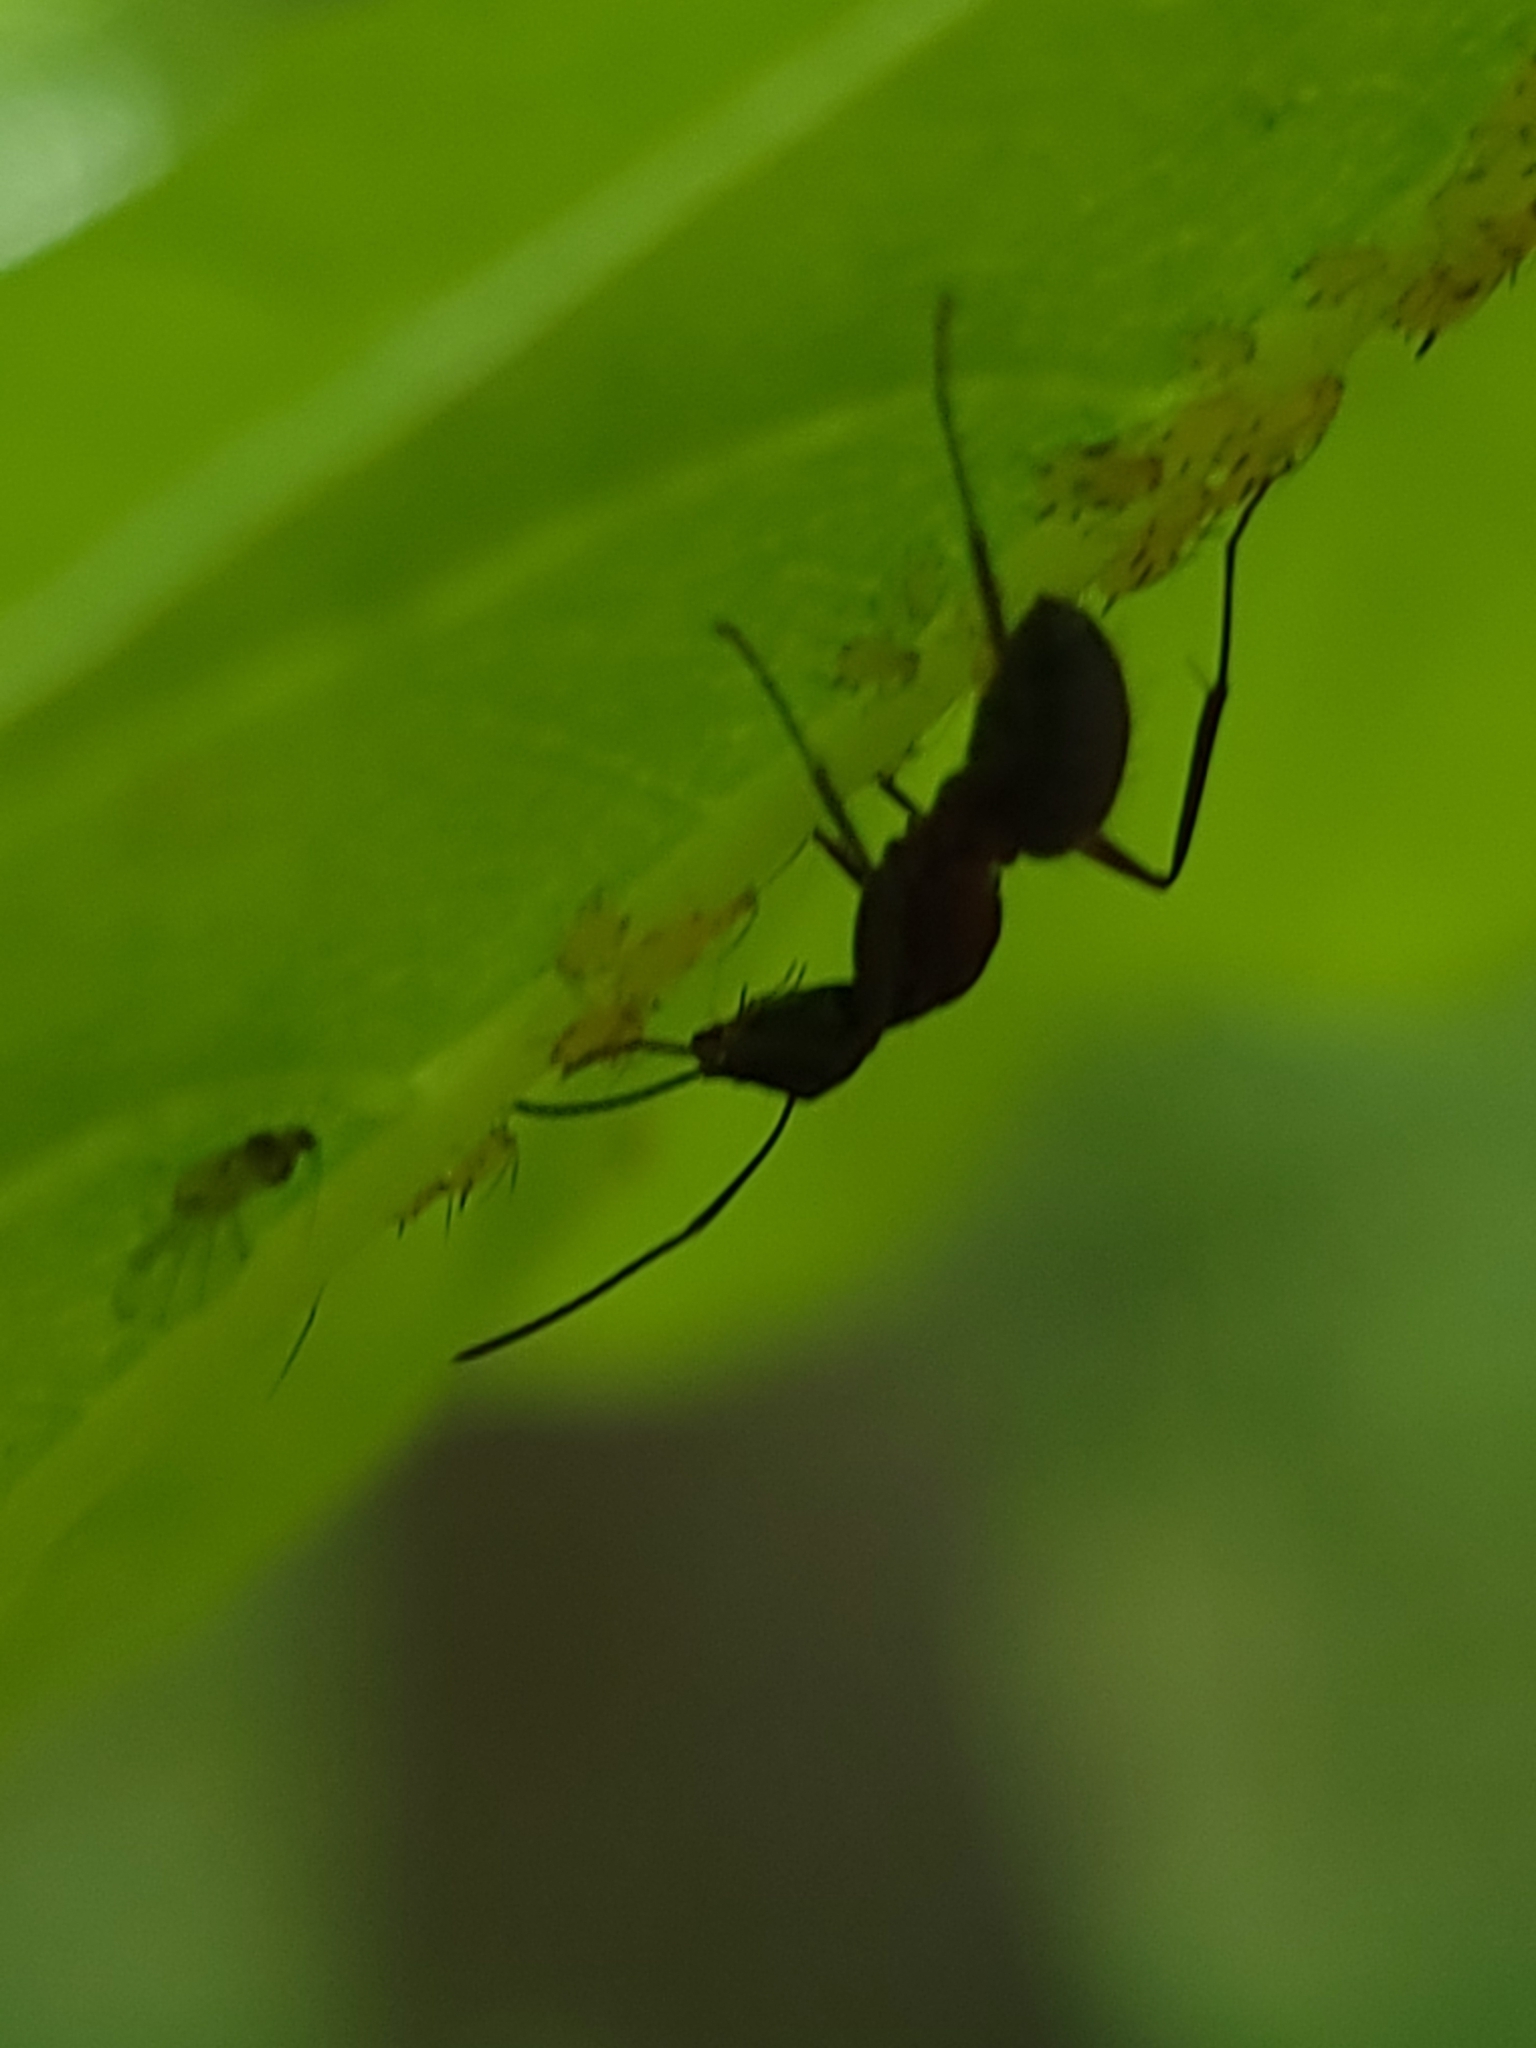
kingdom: Animalia
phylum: Arthropoda
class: Insecta
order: Hymenoptera
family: Formicidae
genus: Camponotus
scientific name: Camponotus chromaiodes
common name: Red carpenter ant
